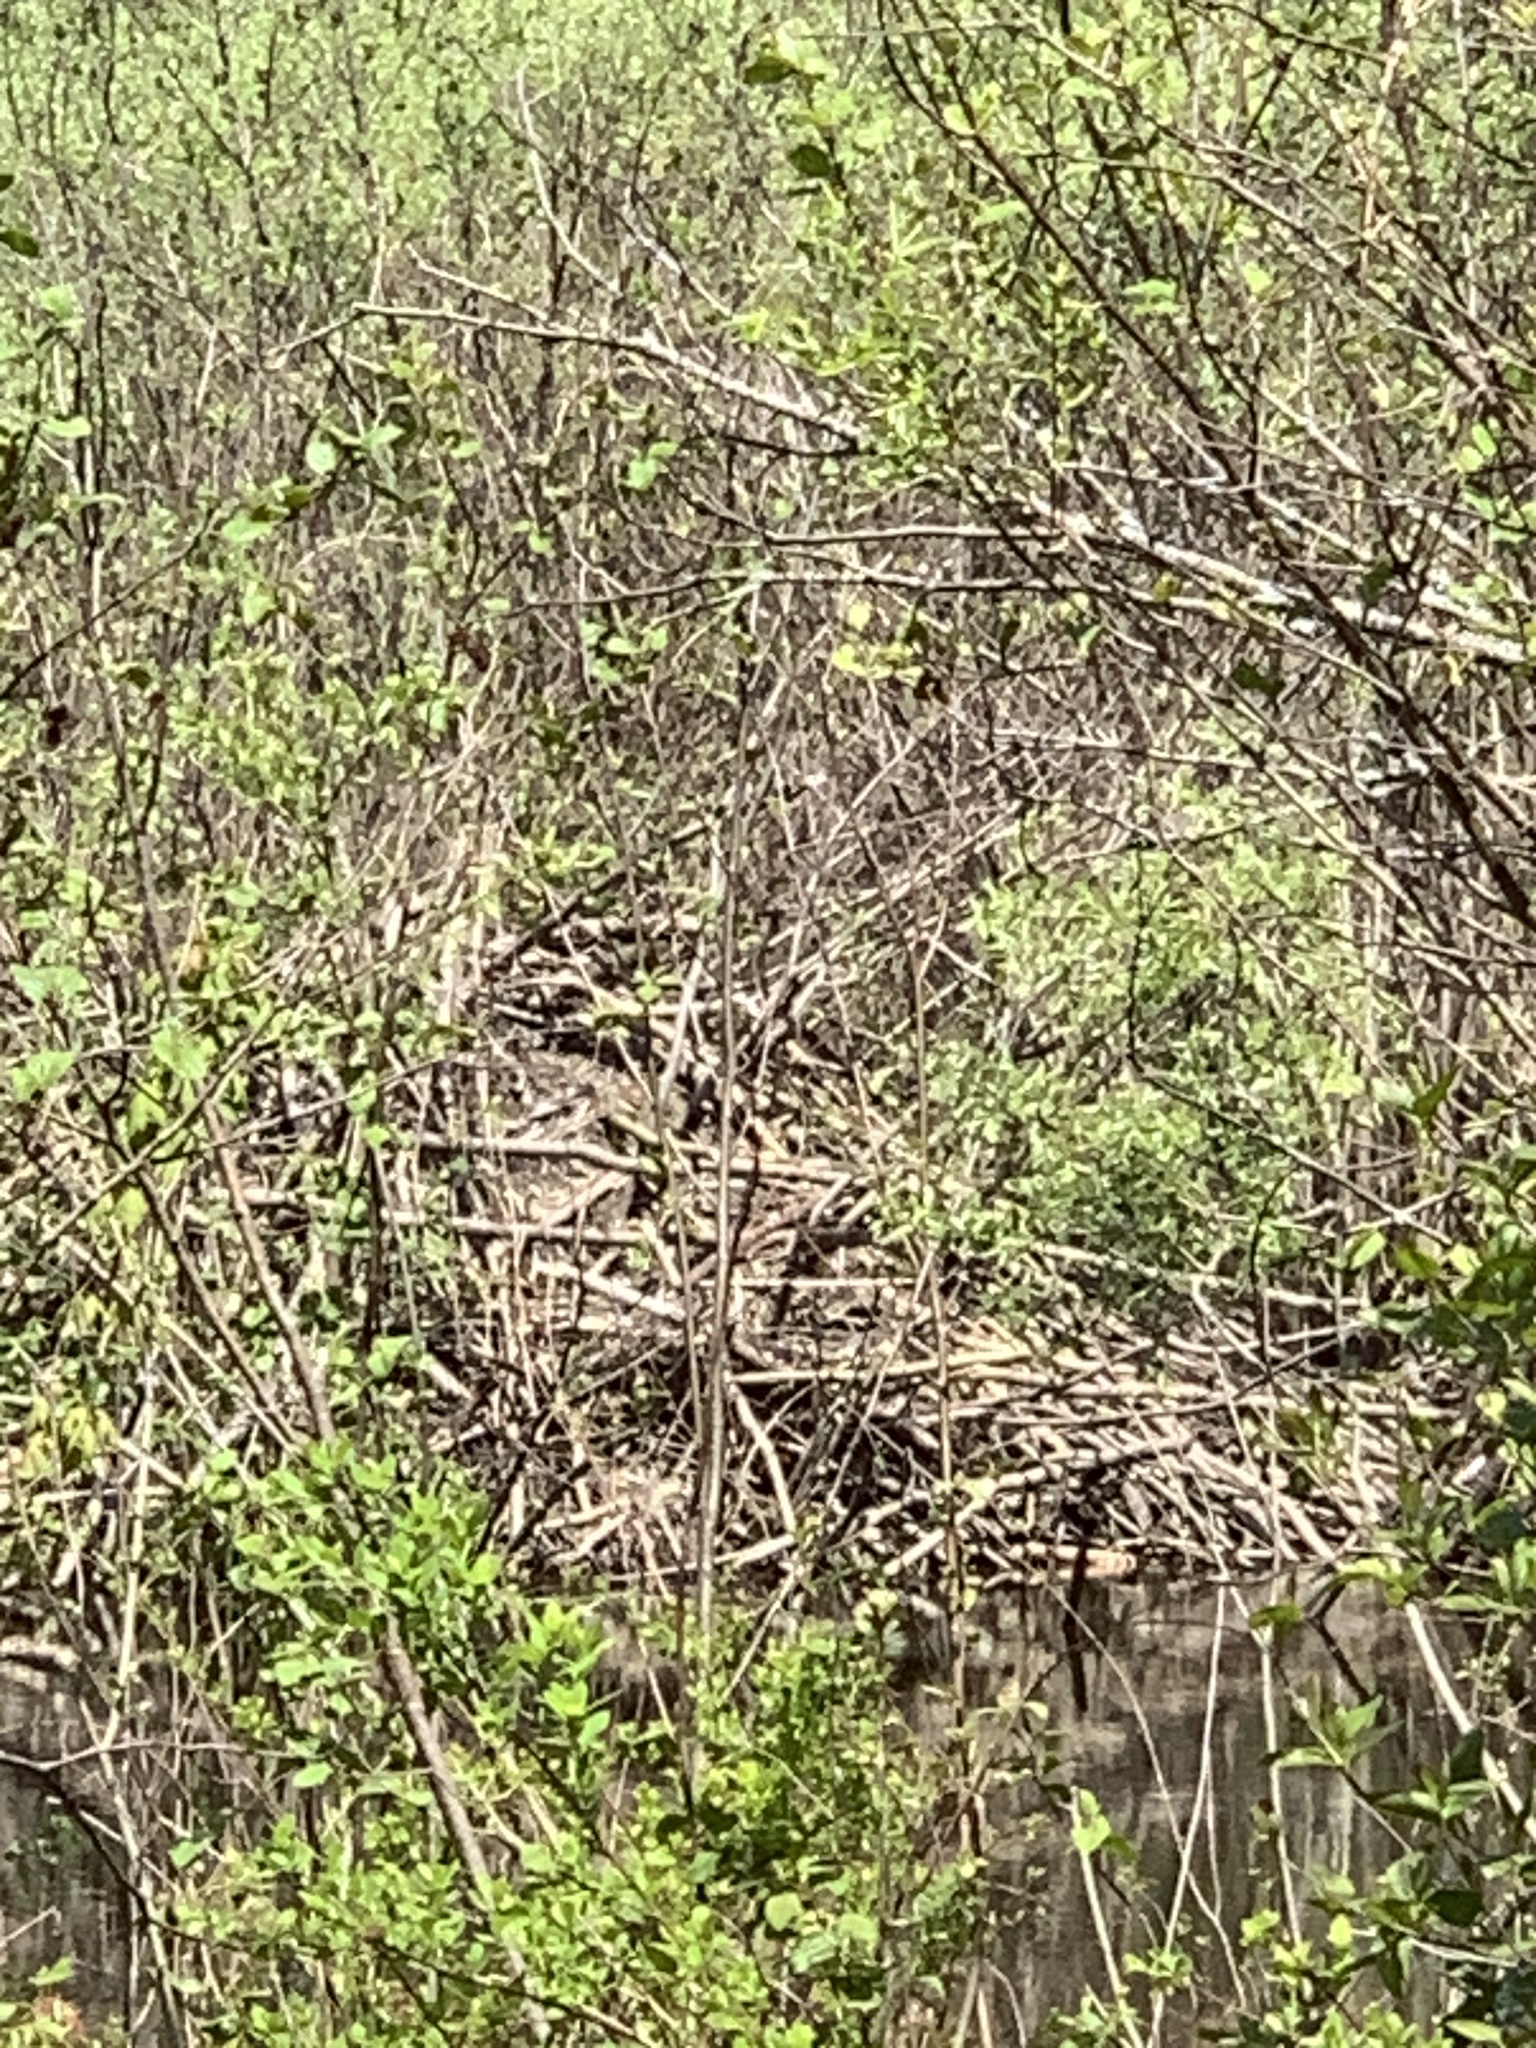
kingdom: Animalia
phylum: Chordata
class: Mammalia
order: Rodentia
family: Castoridae
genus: Castor
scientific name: Castor canadensis
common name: American beaver
